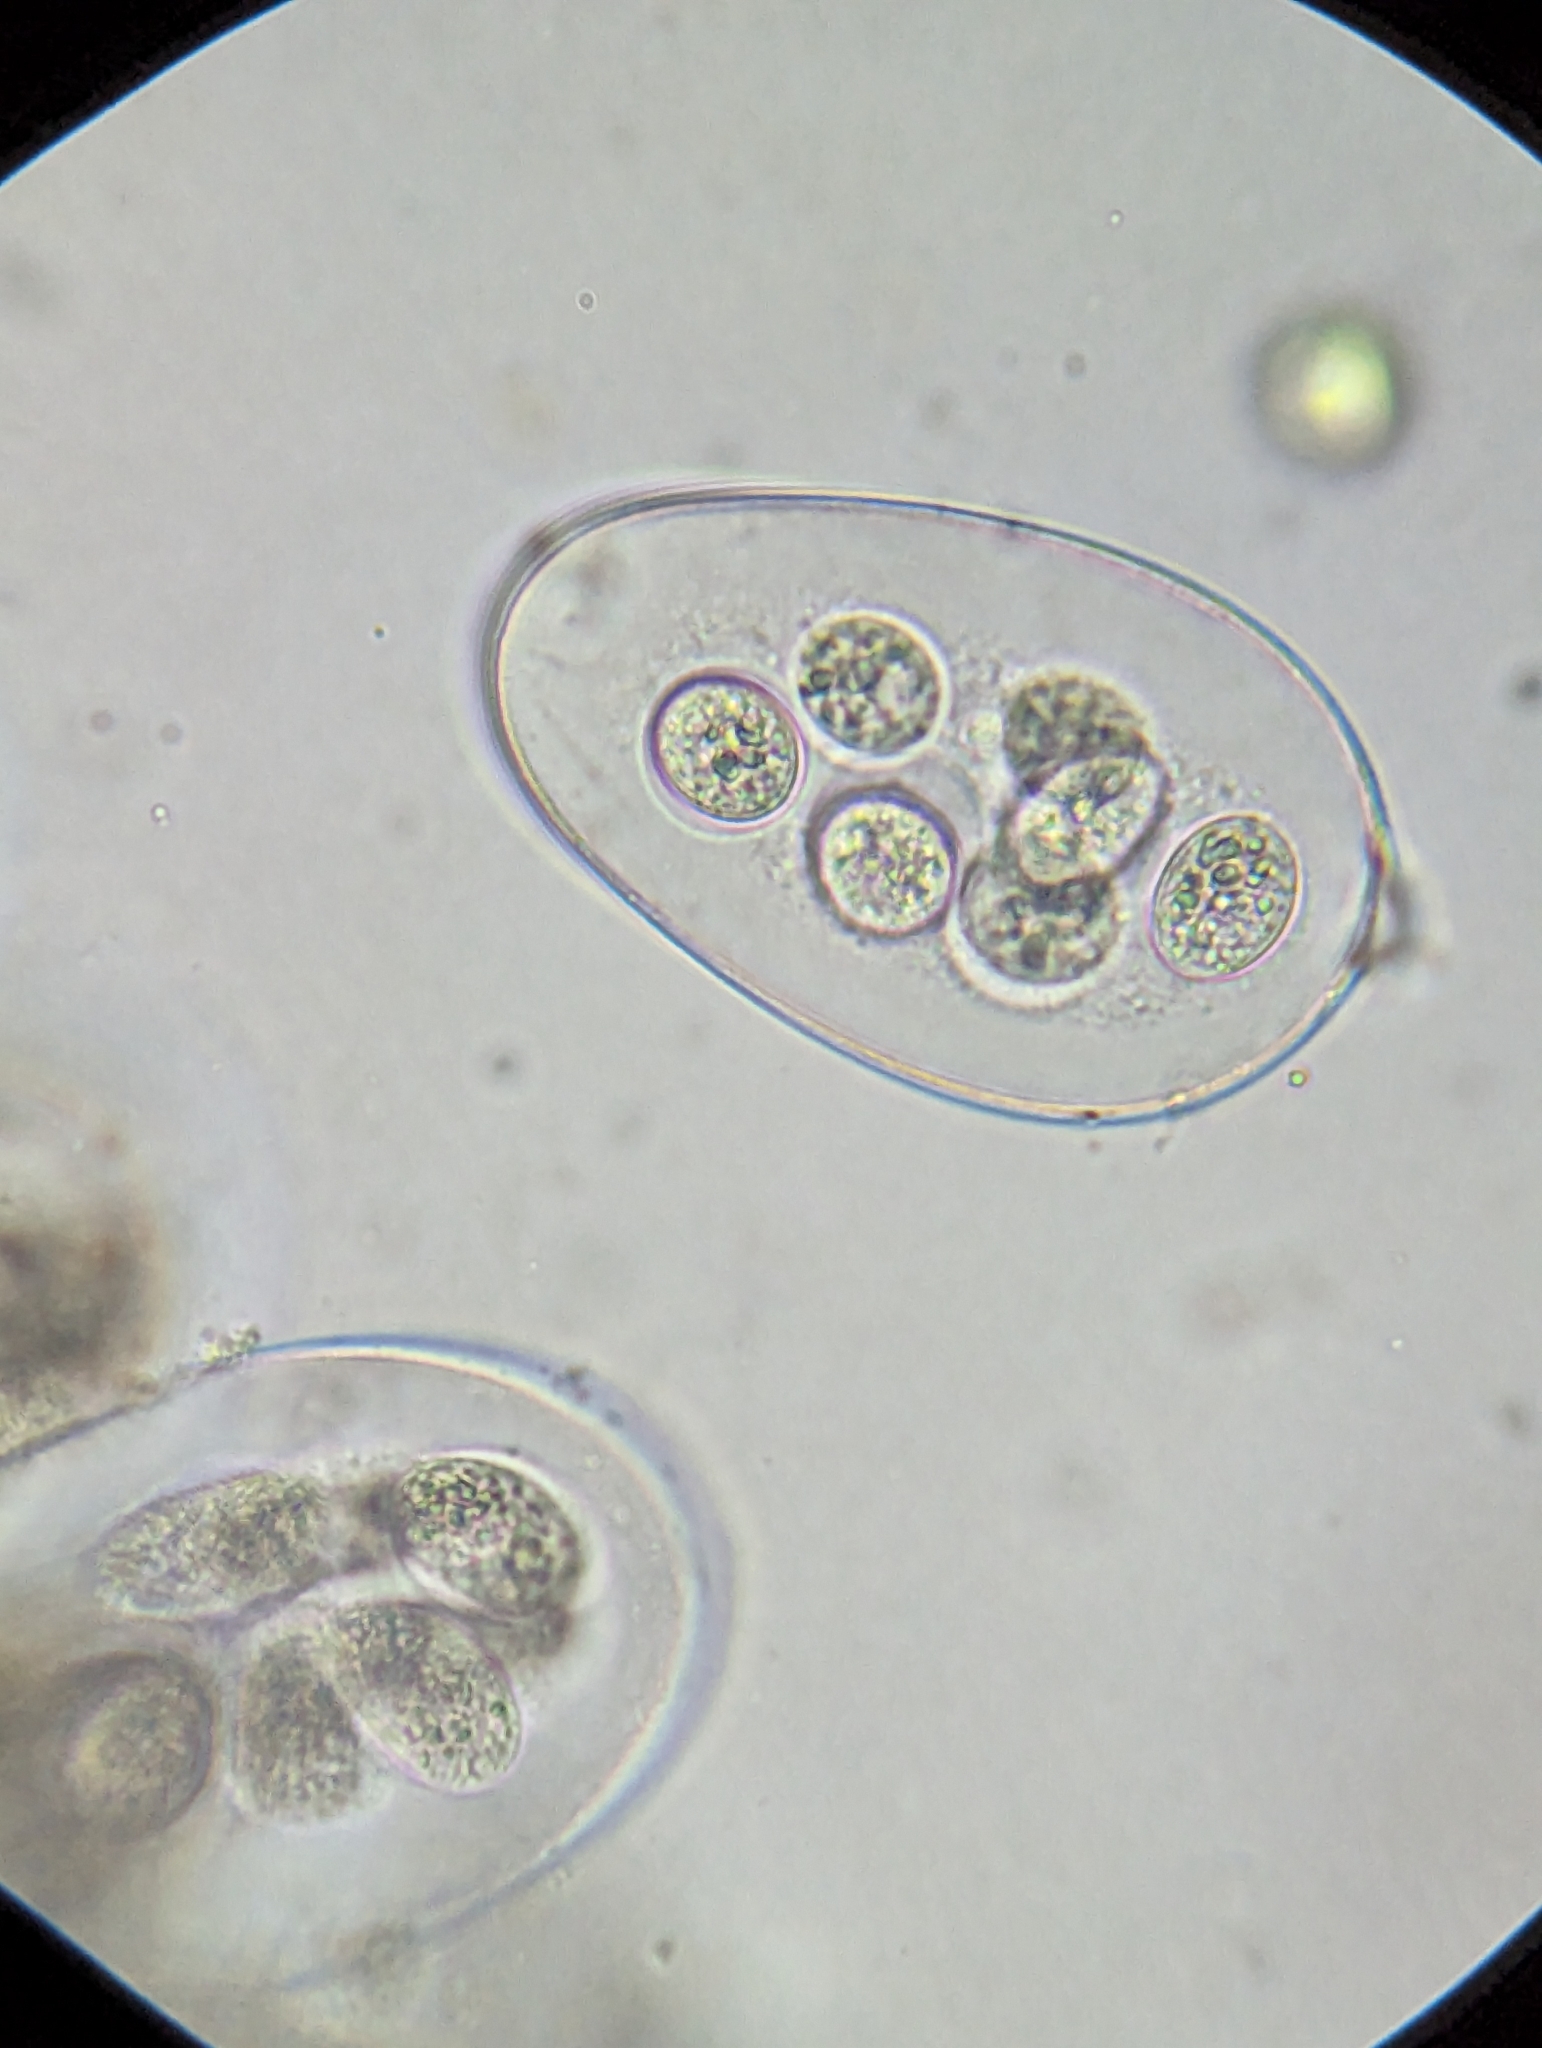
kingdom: Fungi
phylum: Ascomycota
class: Leotiomycetes
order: Helotiales
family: Erysiphaceae
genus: Sawadaea
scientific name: Sawadaea polyfida
